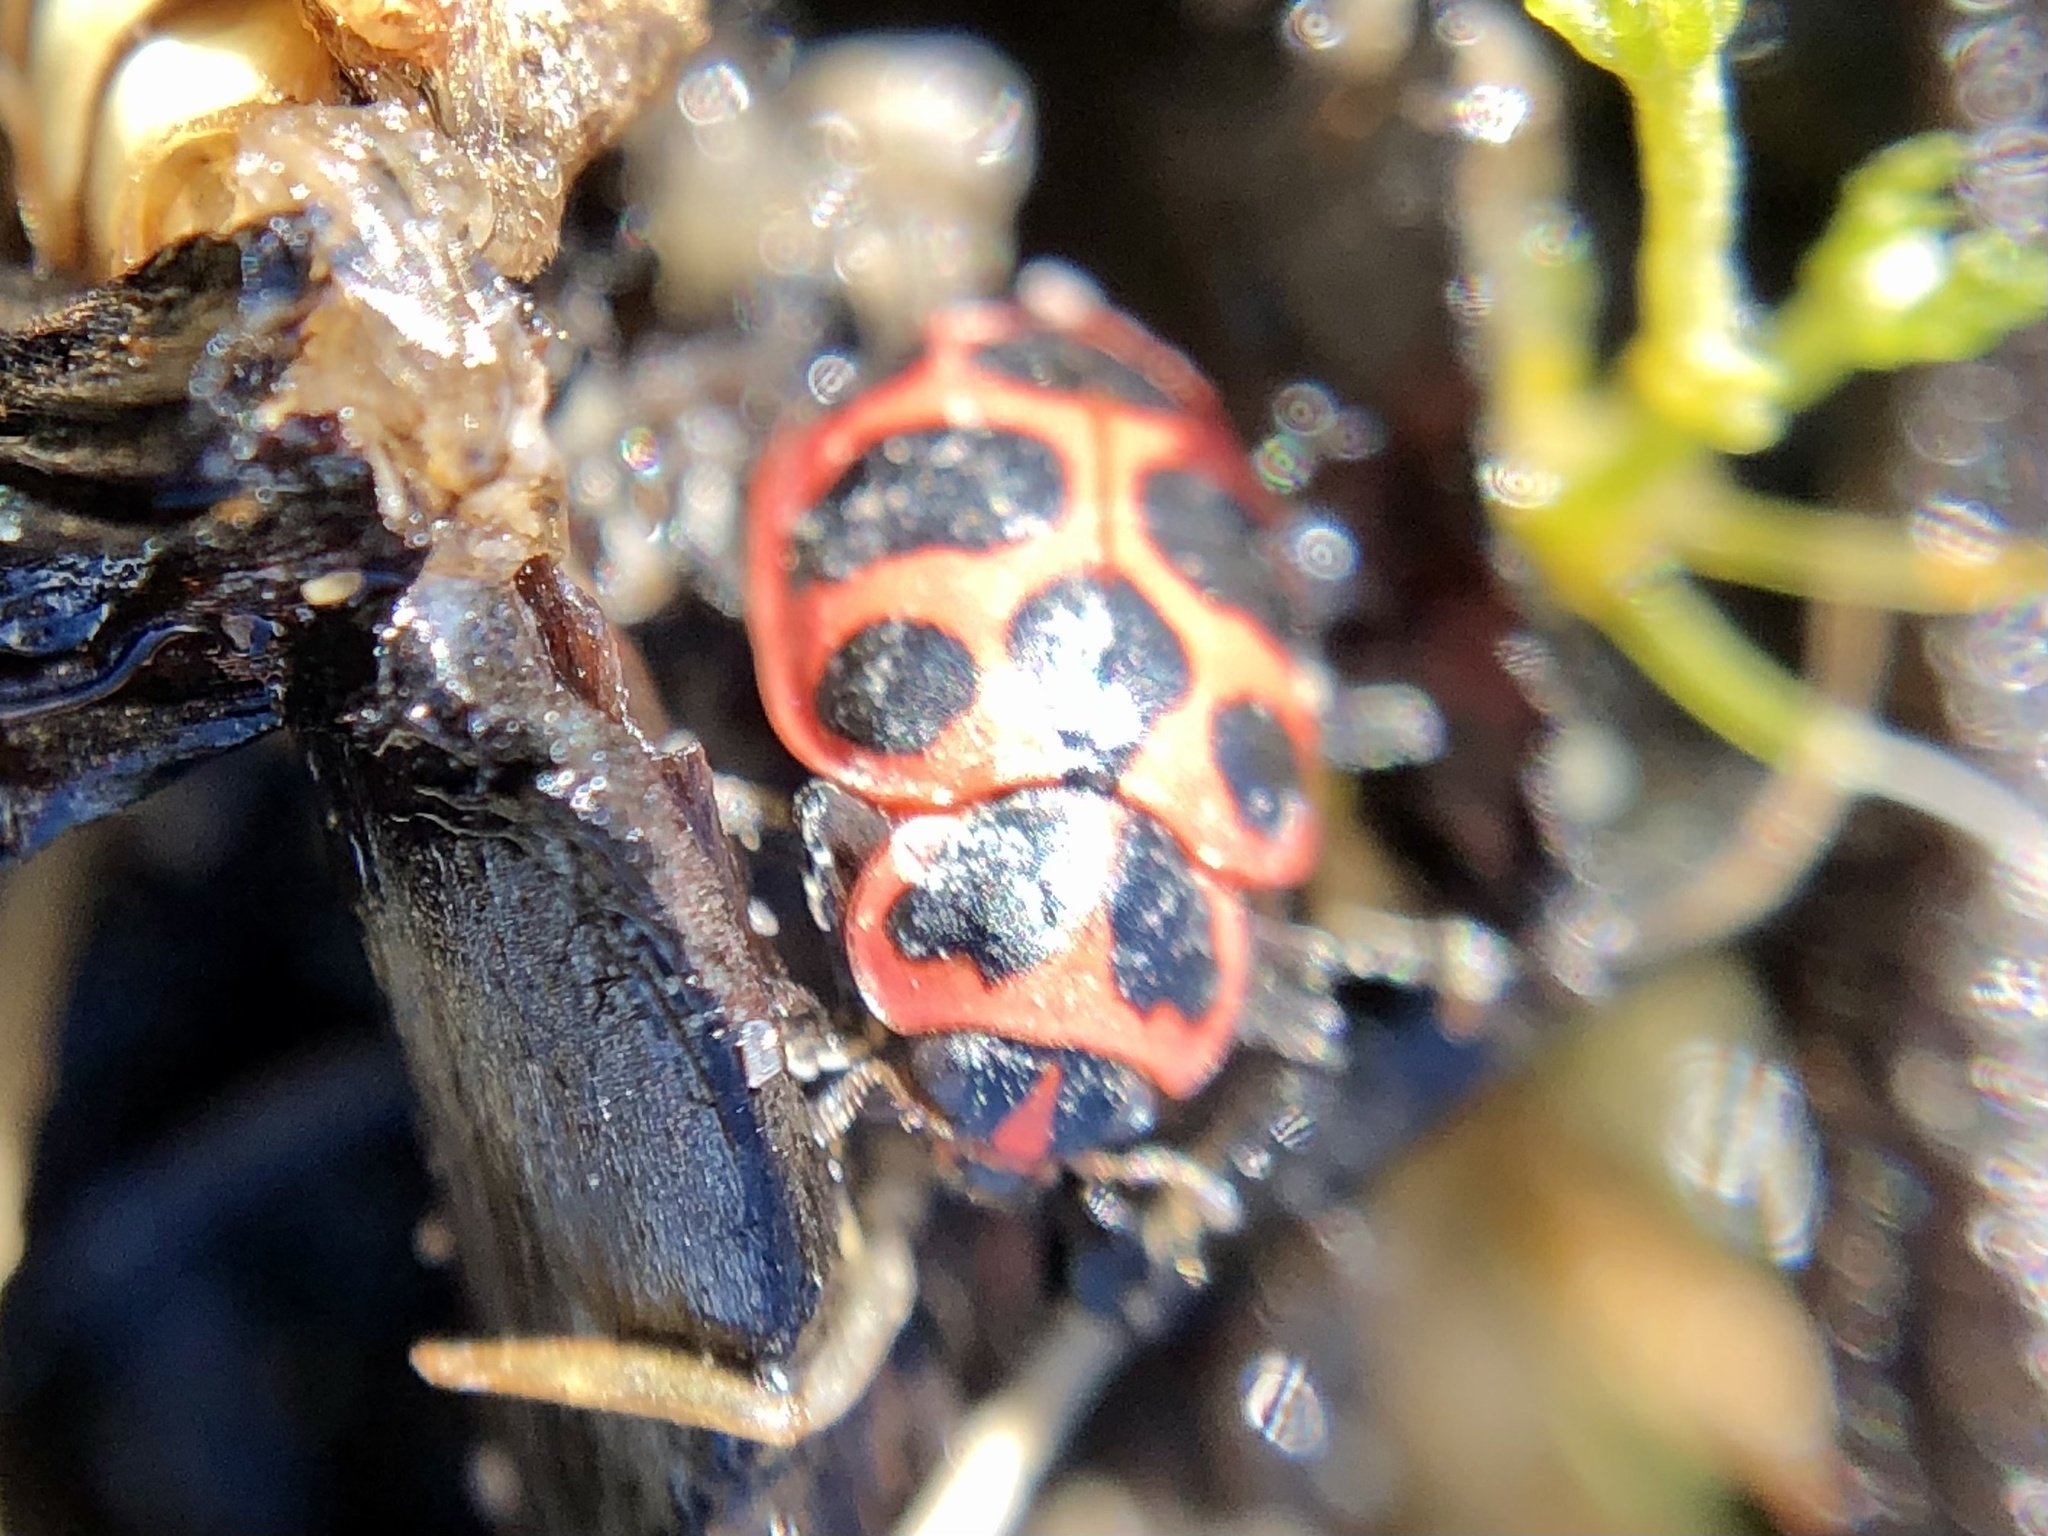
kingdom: Animalia
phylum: Arthropoda
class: Insecta
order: Coleoptera
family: Coccinellidae
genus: Coleomegilla
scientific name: Coleomegilla maculata
